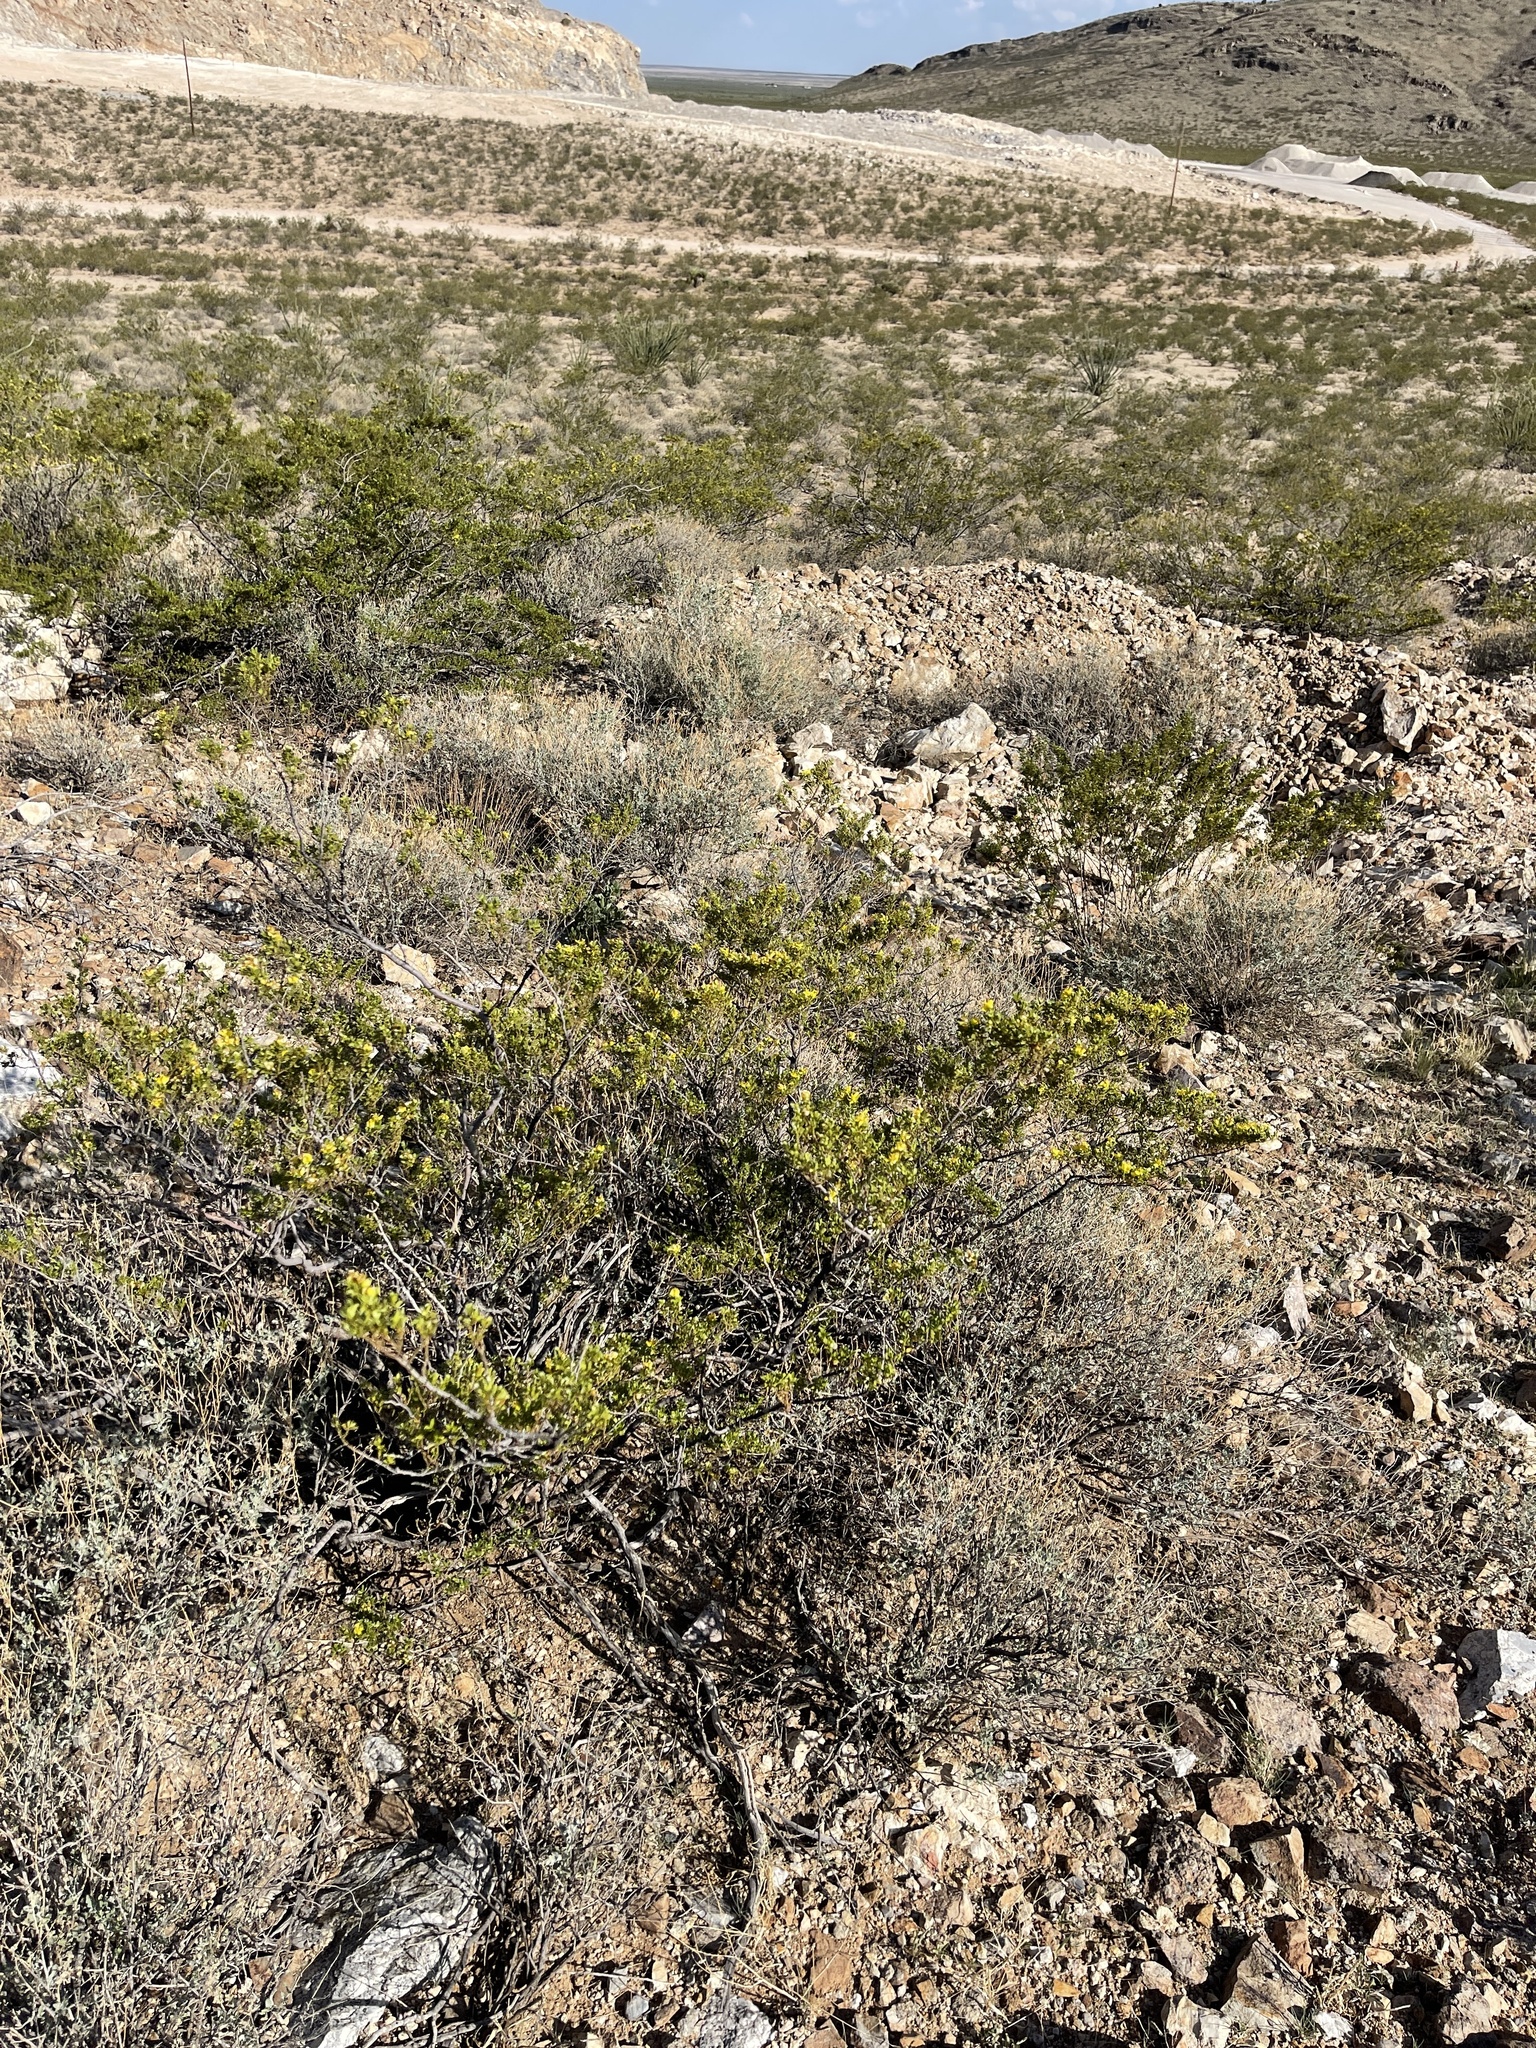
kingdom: Plantae
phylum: Tracheophyta
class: Magnoliopsida
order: Zygophyllales
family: Zygophyllaceae
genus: Larrea
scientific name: Larrea tridentata
